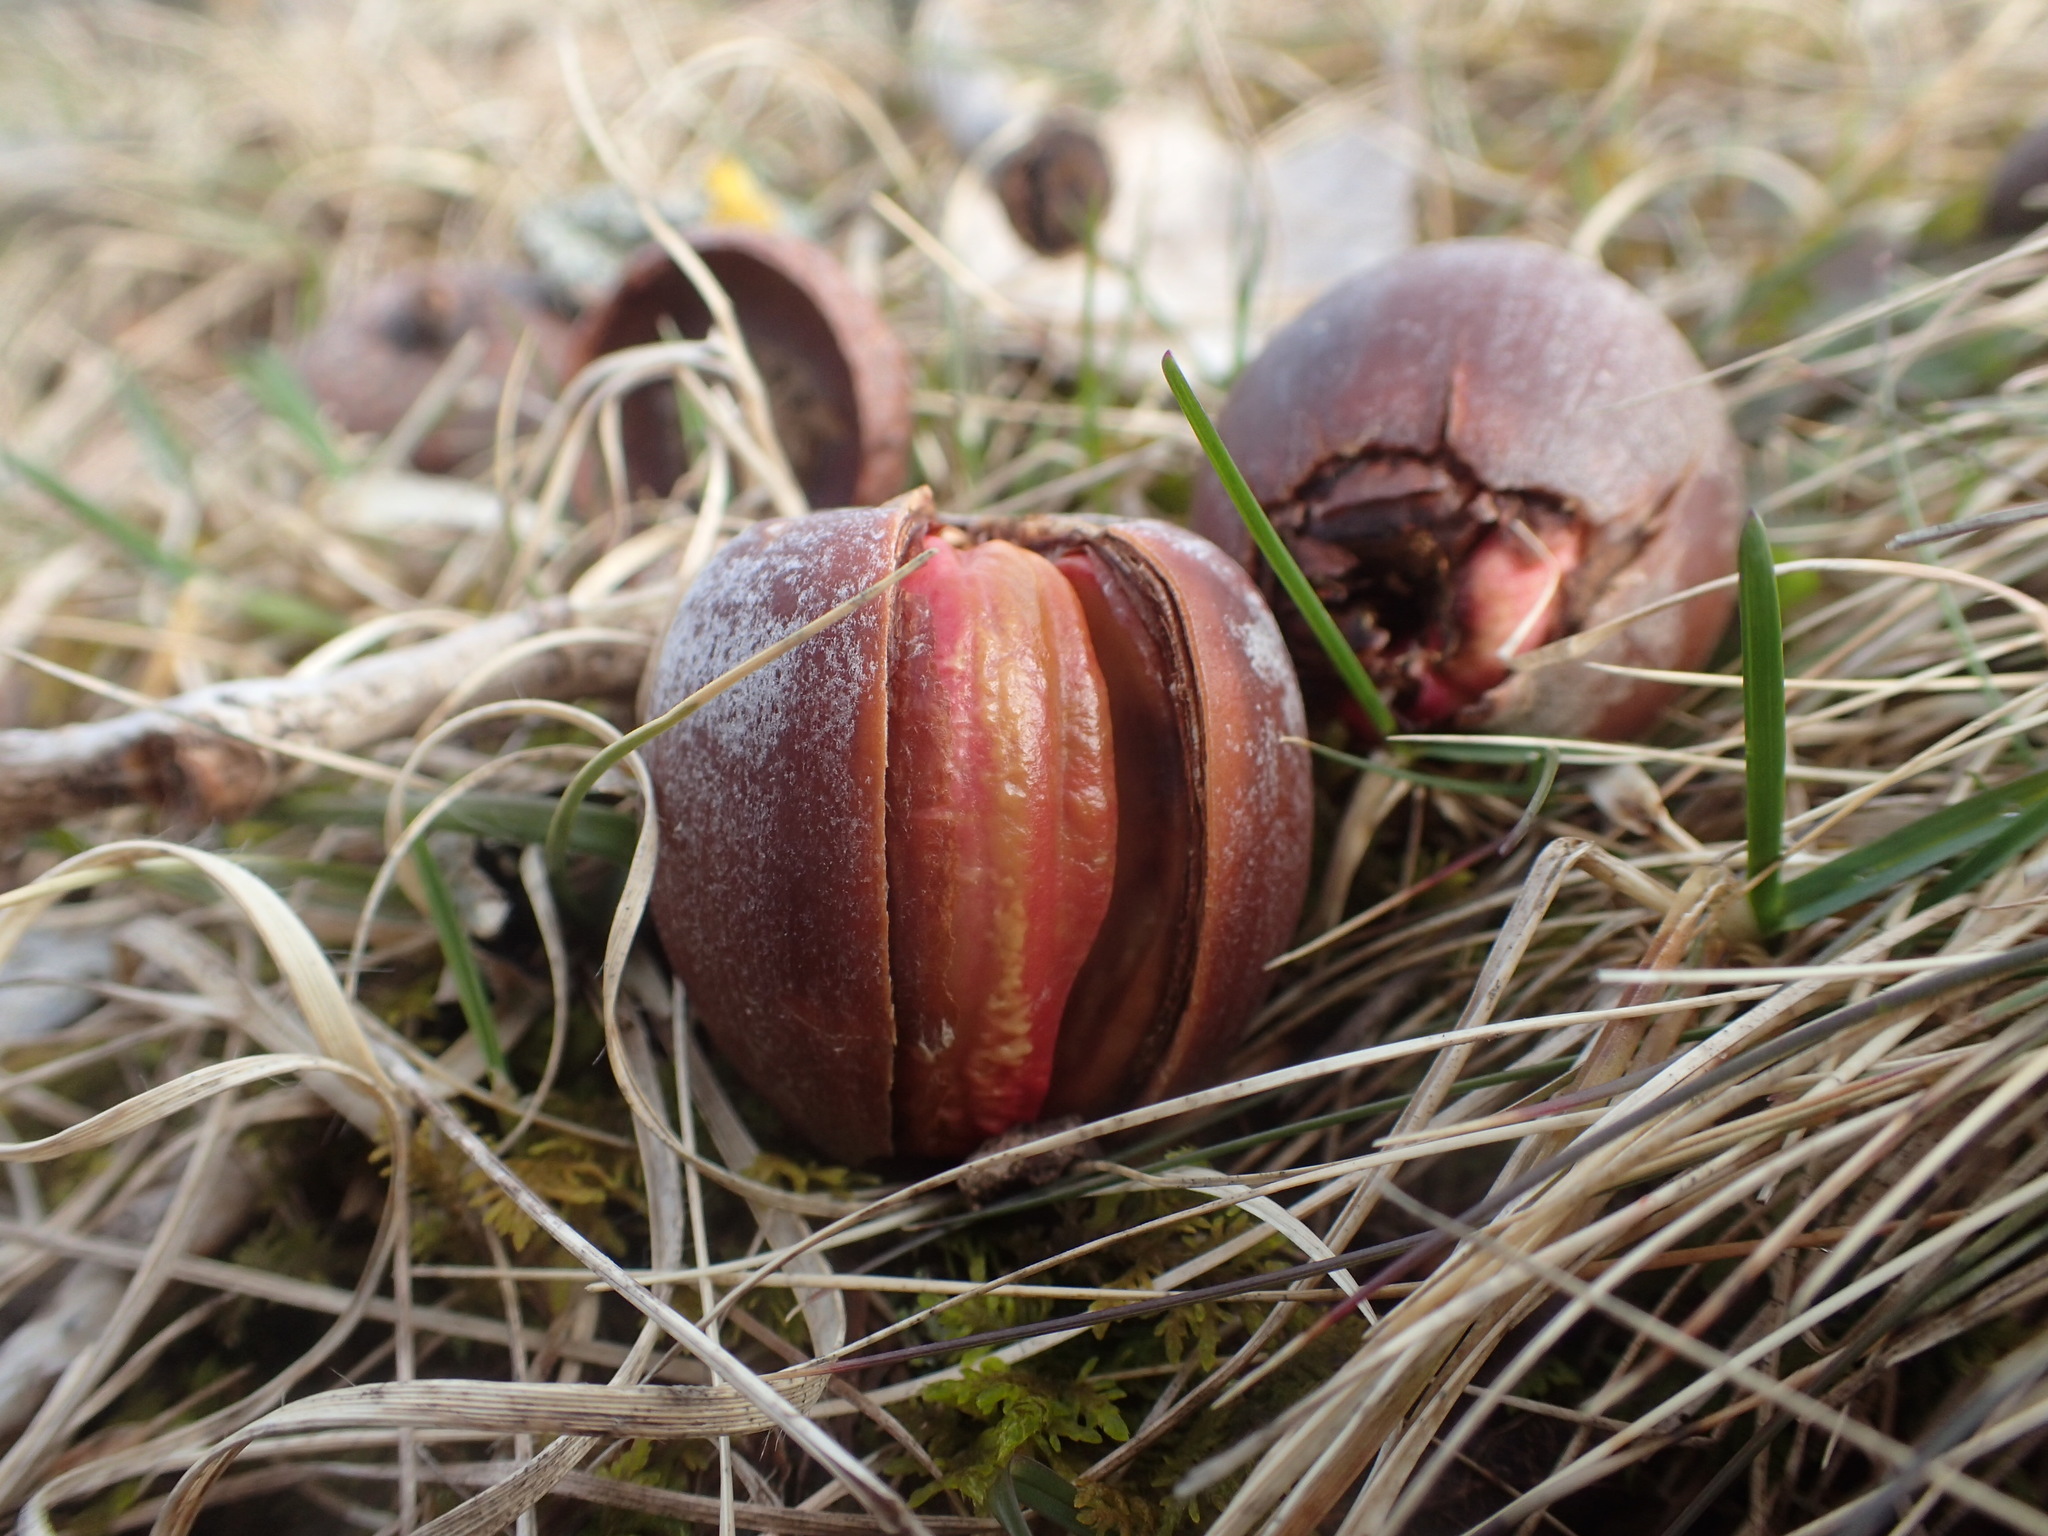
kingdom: Plantae
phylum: Tracheophyta
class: Magnoliopsida
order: Fagales
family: Fagaceae
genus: Quercus
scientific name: Quercus rubra
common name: Red oak
